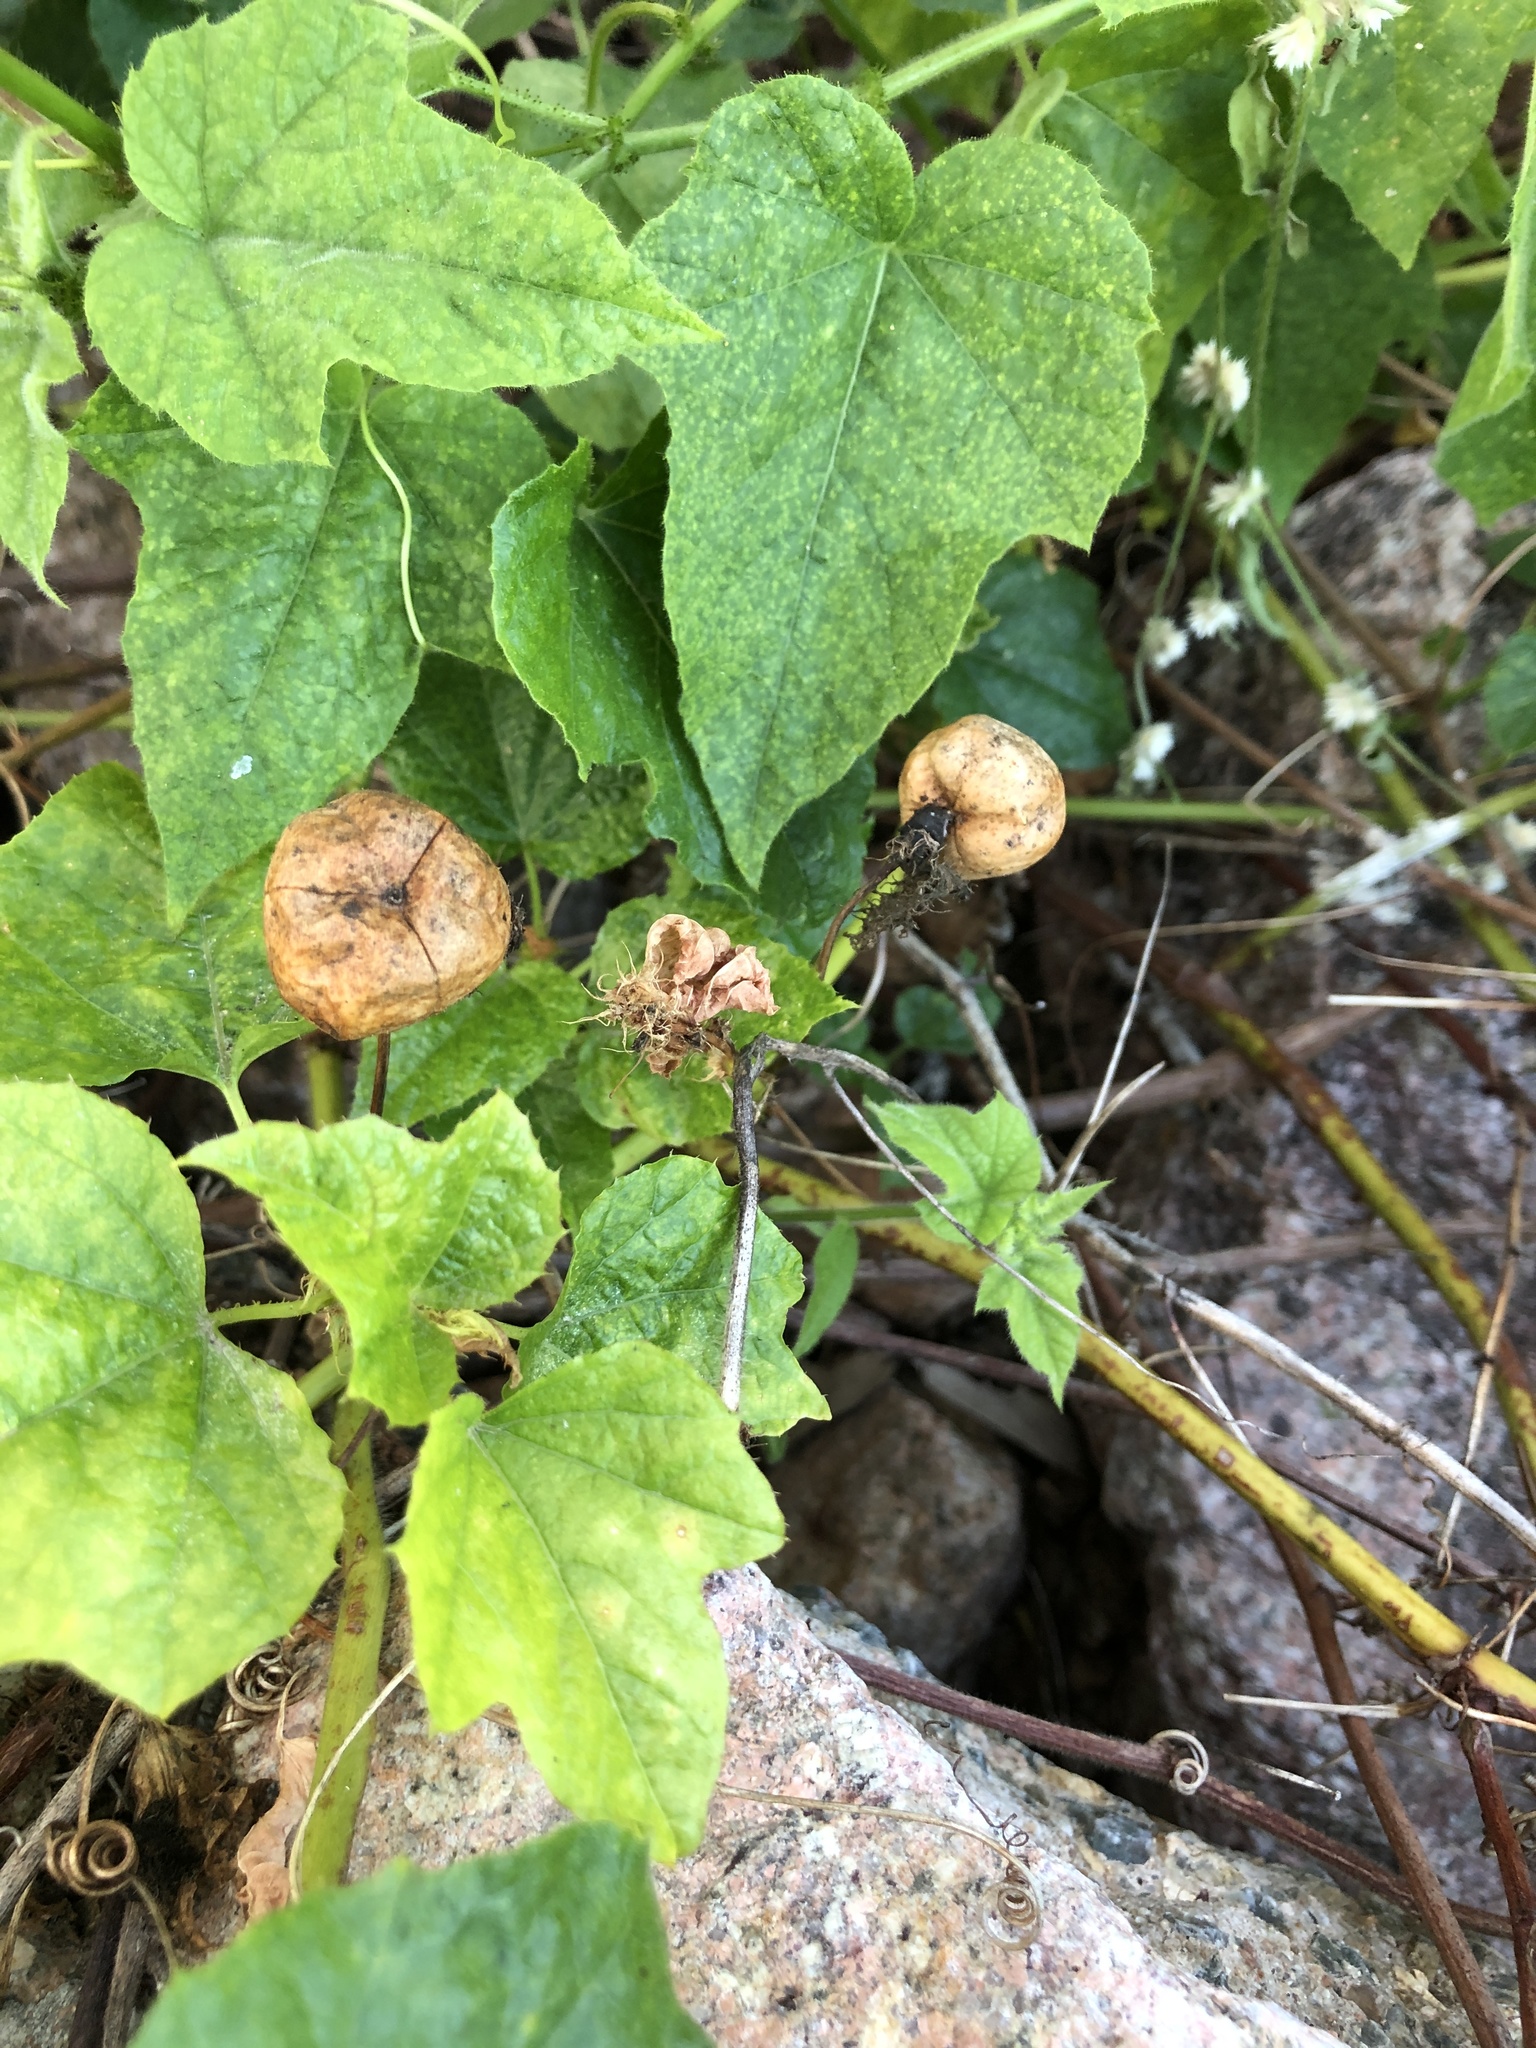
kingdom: Plantae
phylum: Tracheophyta
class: Magnoliopsida
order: Malpighiales
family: Passifloraceae
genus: Passiflora
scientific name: Passiflora foetida
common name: Fetid passionflower
